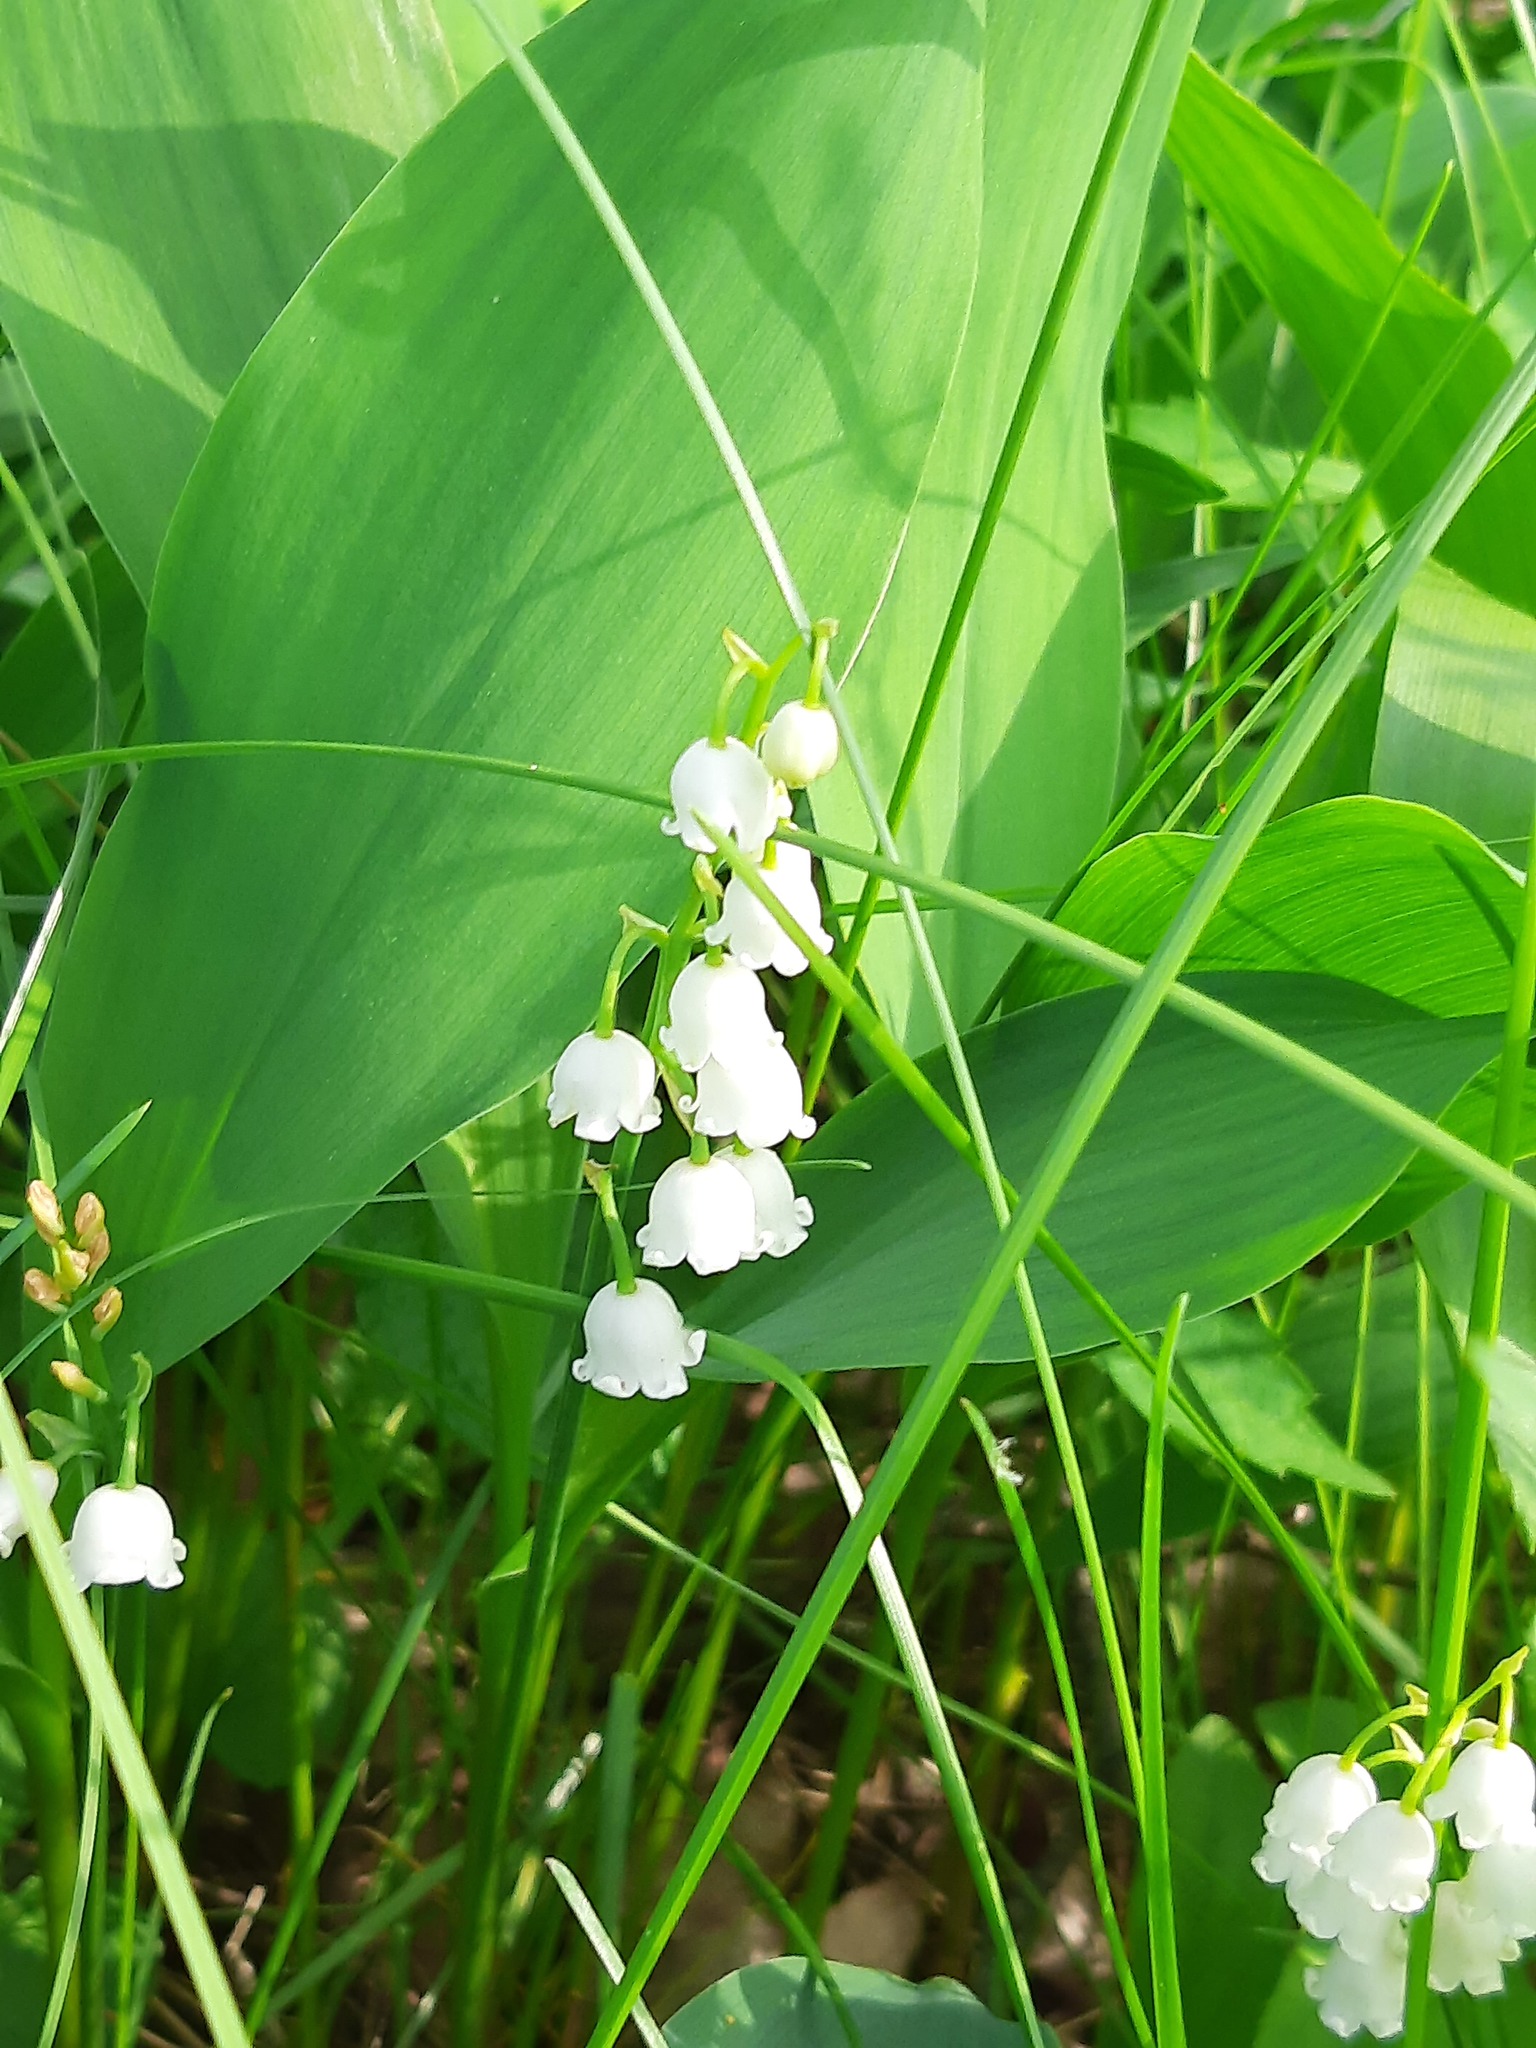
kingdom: Plantae
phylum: Tracheophyta
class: Liliopsida
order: Asparagales
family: Asparagaceae
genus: Convallaria
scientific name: Convallaria majalis
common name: Lily-of-the-valley
